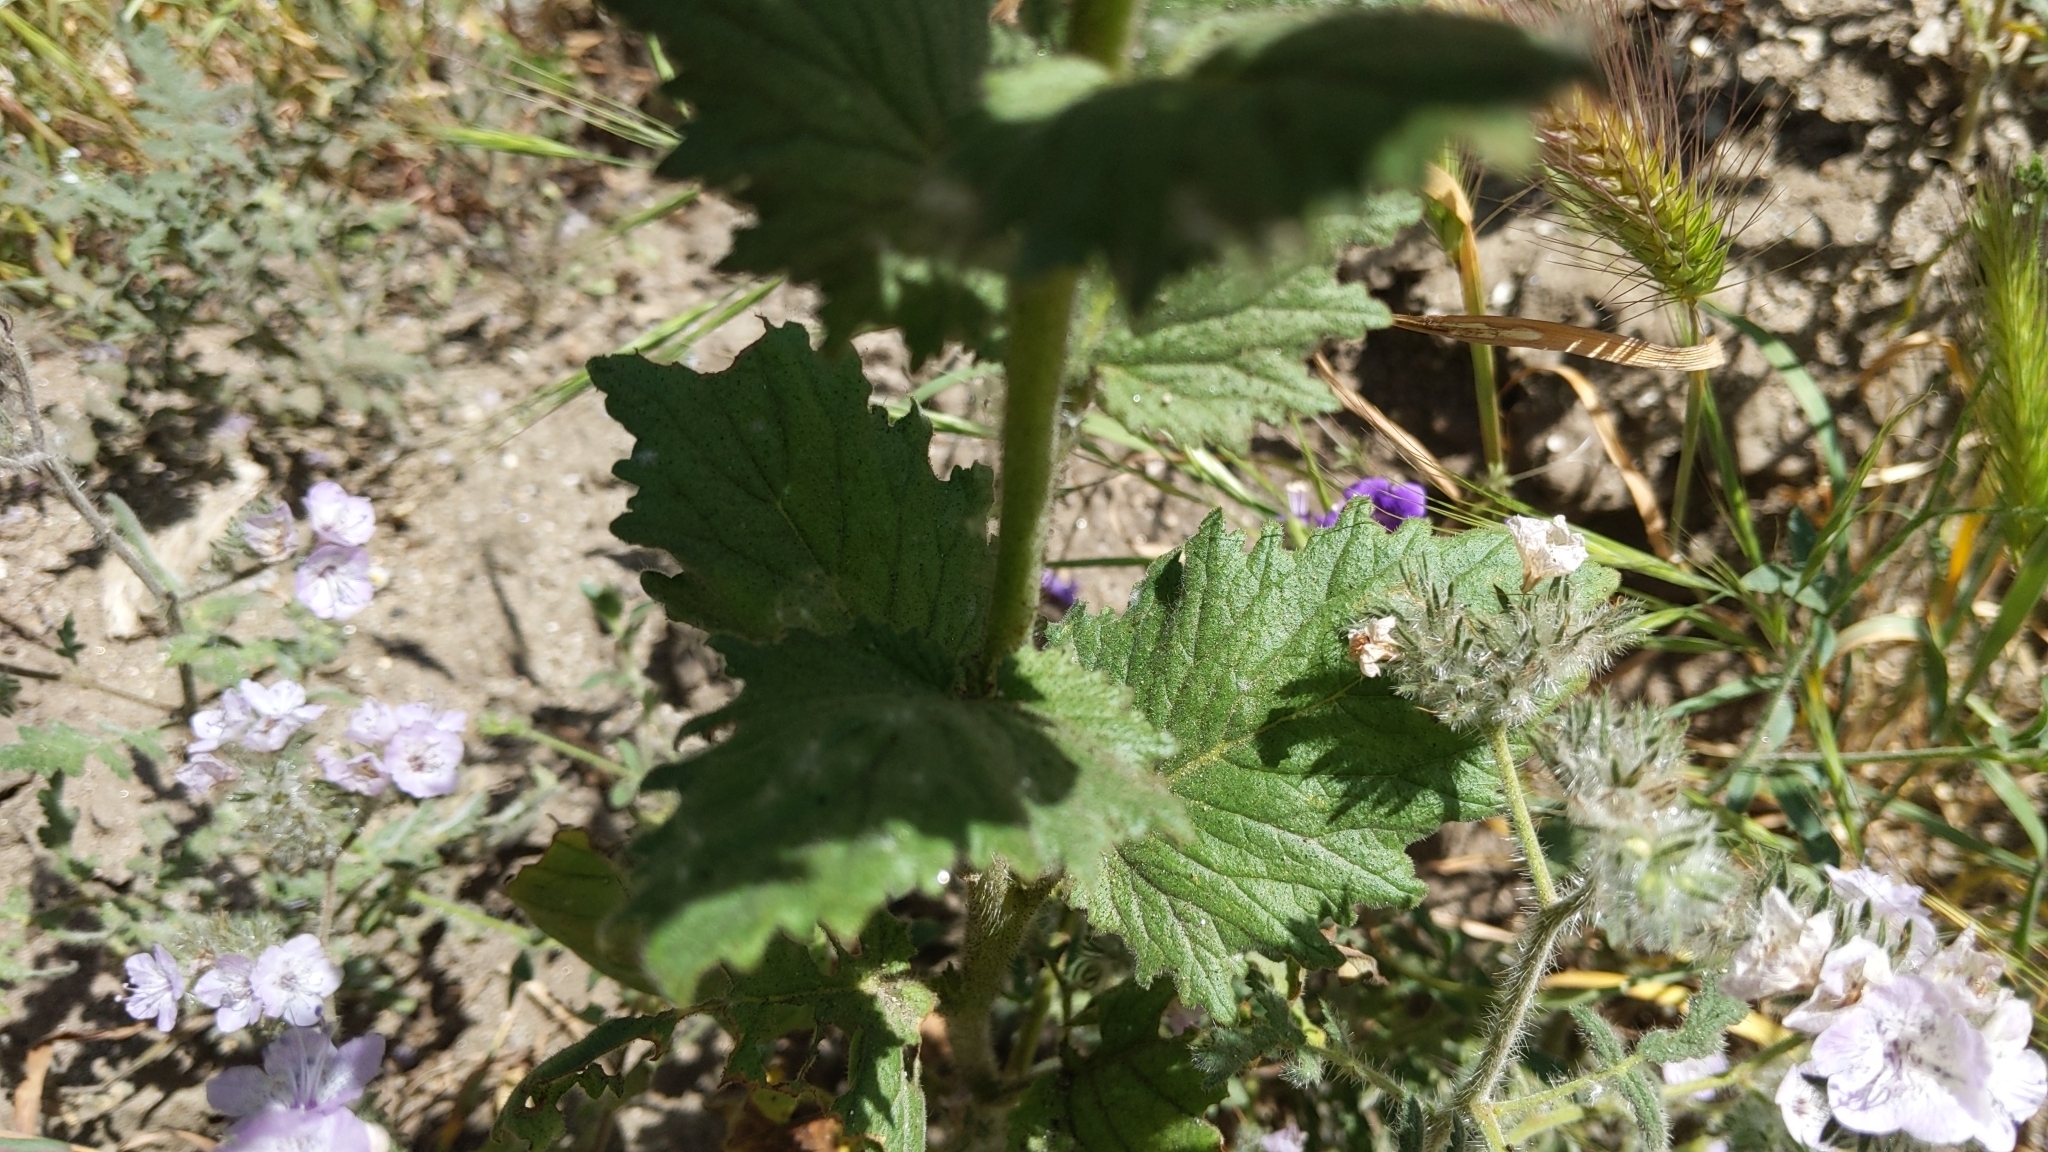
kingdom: Plantae
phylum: Tracheophyta
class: Magnoliopsida
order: Boraginales
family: Hydrophyllaceae
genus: Phacelia
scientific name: Phacelia grandiflora
